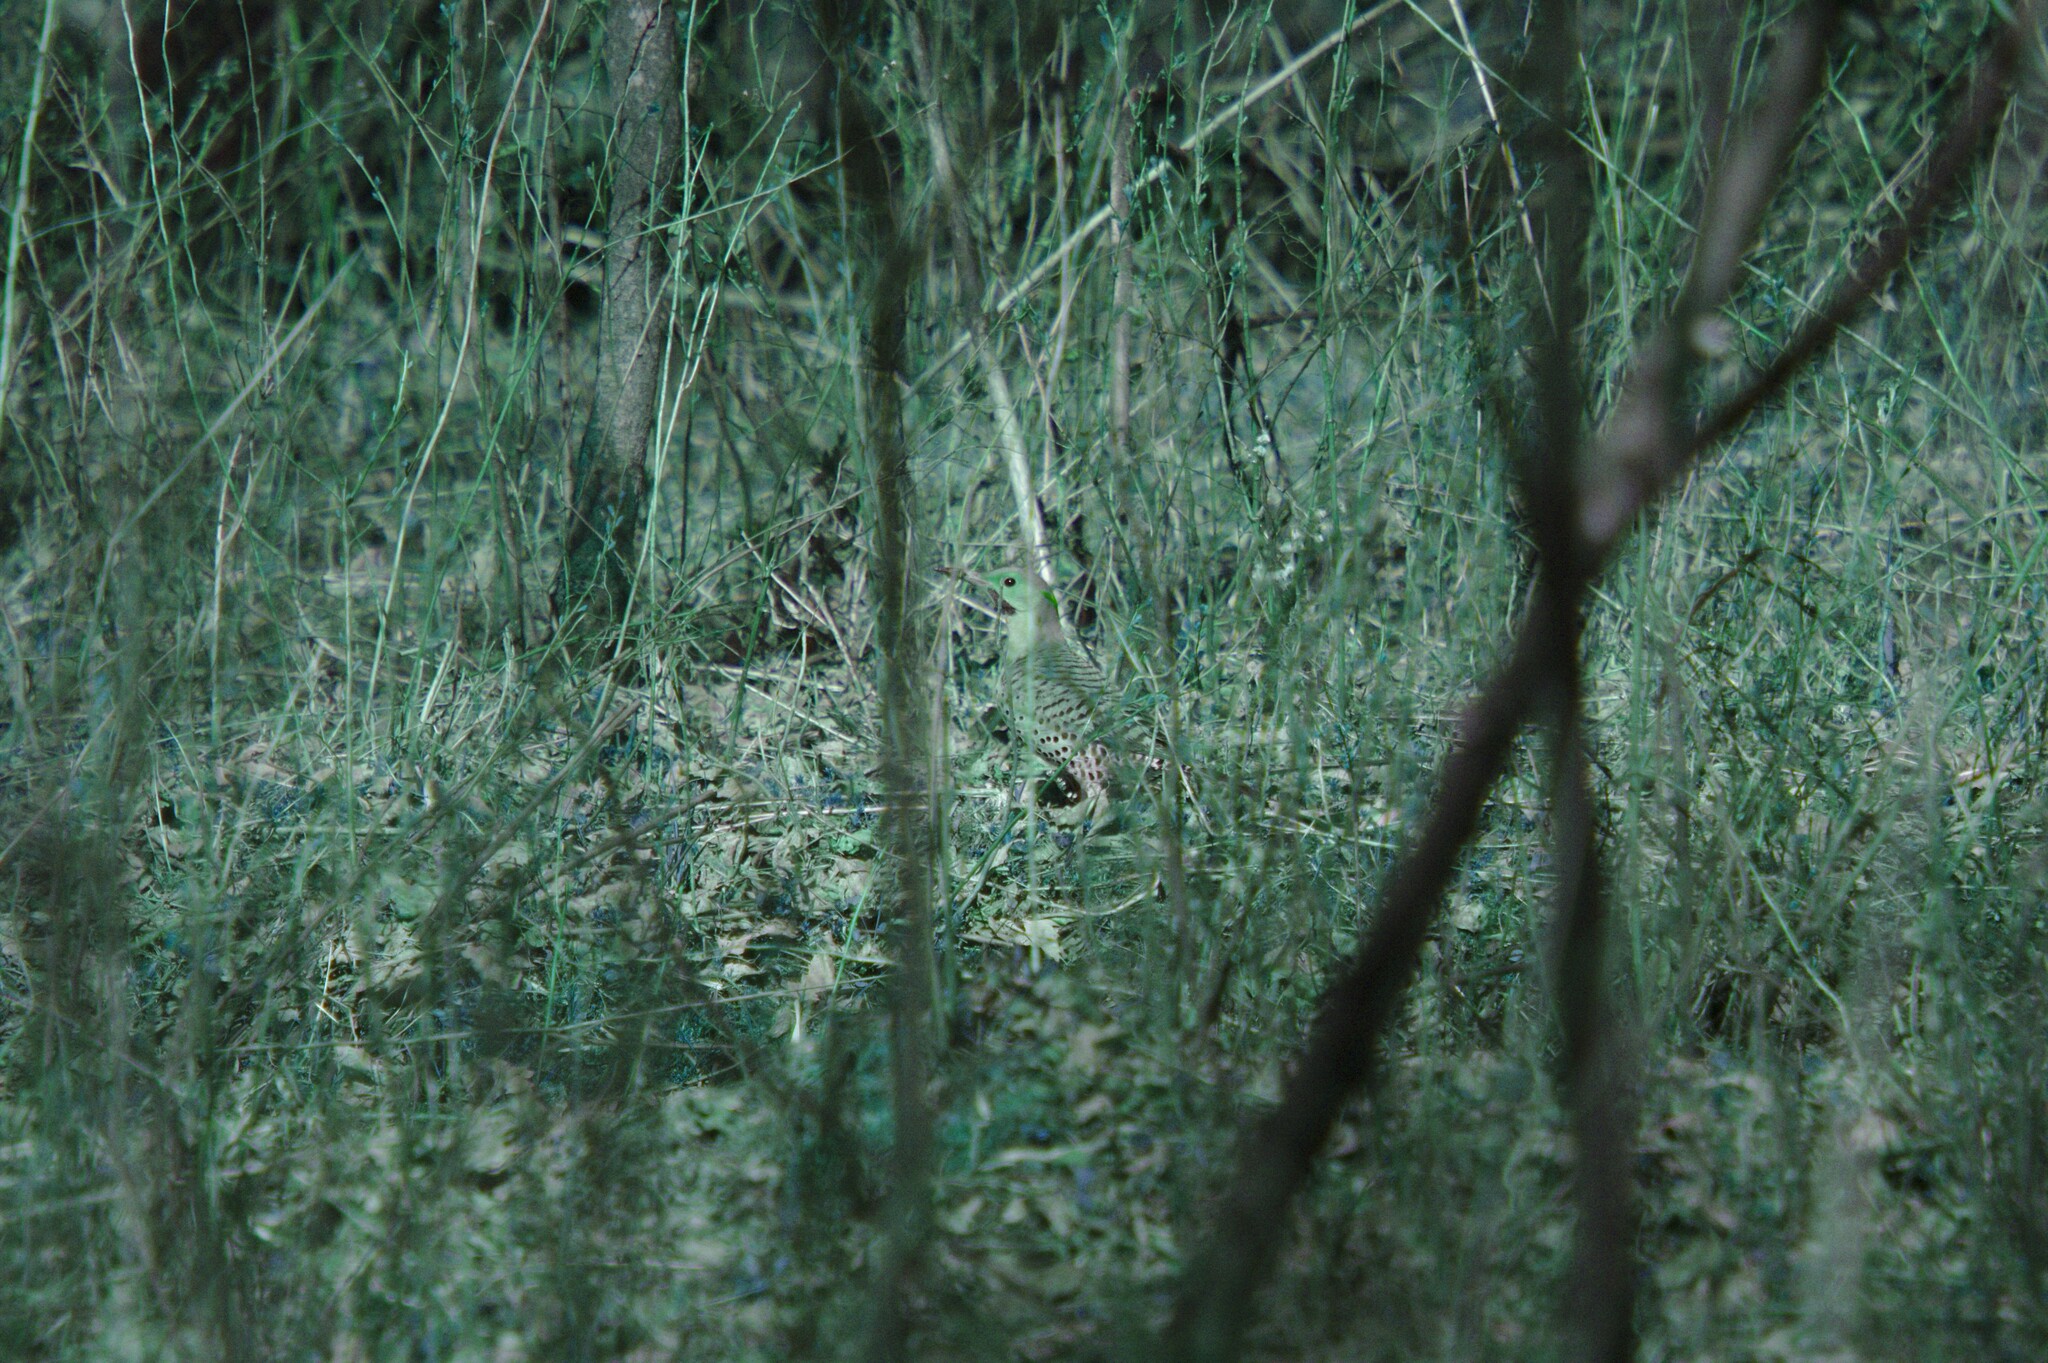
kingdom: Animalia
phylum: Chordata
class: Aves
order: Piciformes
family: Picidae
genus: Colaptes
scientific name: Colaptes auratus
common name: Northern flicker
